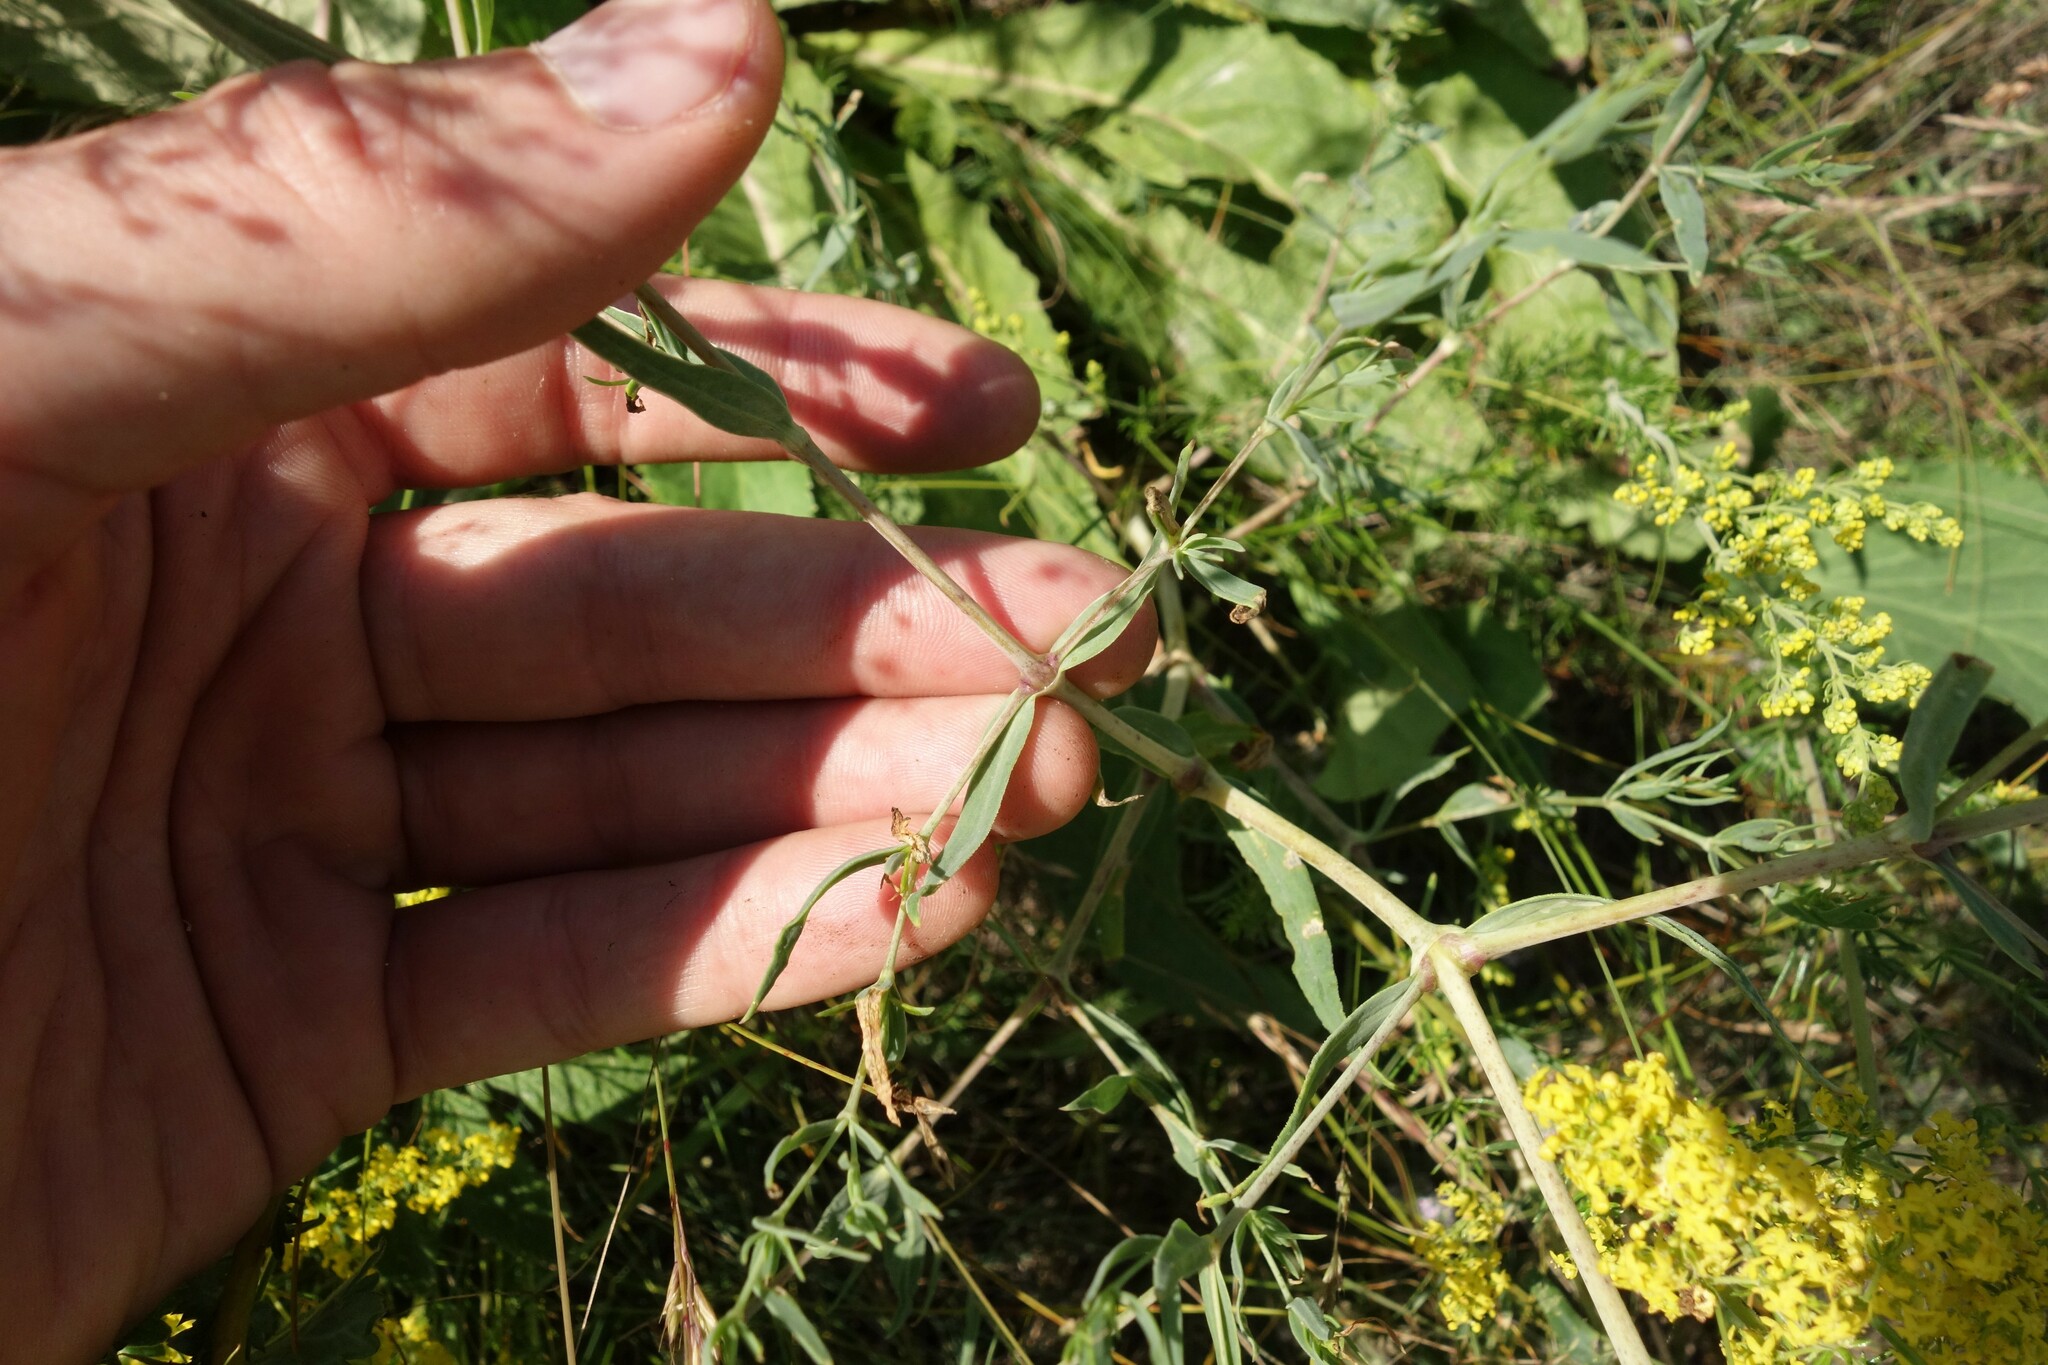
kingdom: Plantae
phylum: Tracheophyta
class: Magnoliopsida
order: Caryophyllales
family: Caryophyllaceae
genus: Gypsophila
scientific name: Gypsophila paniculata
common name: Baby's-breath
